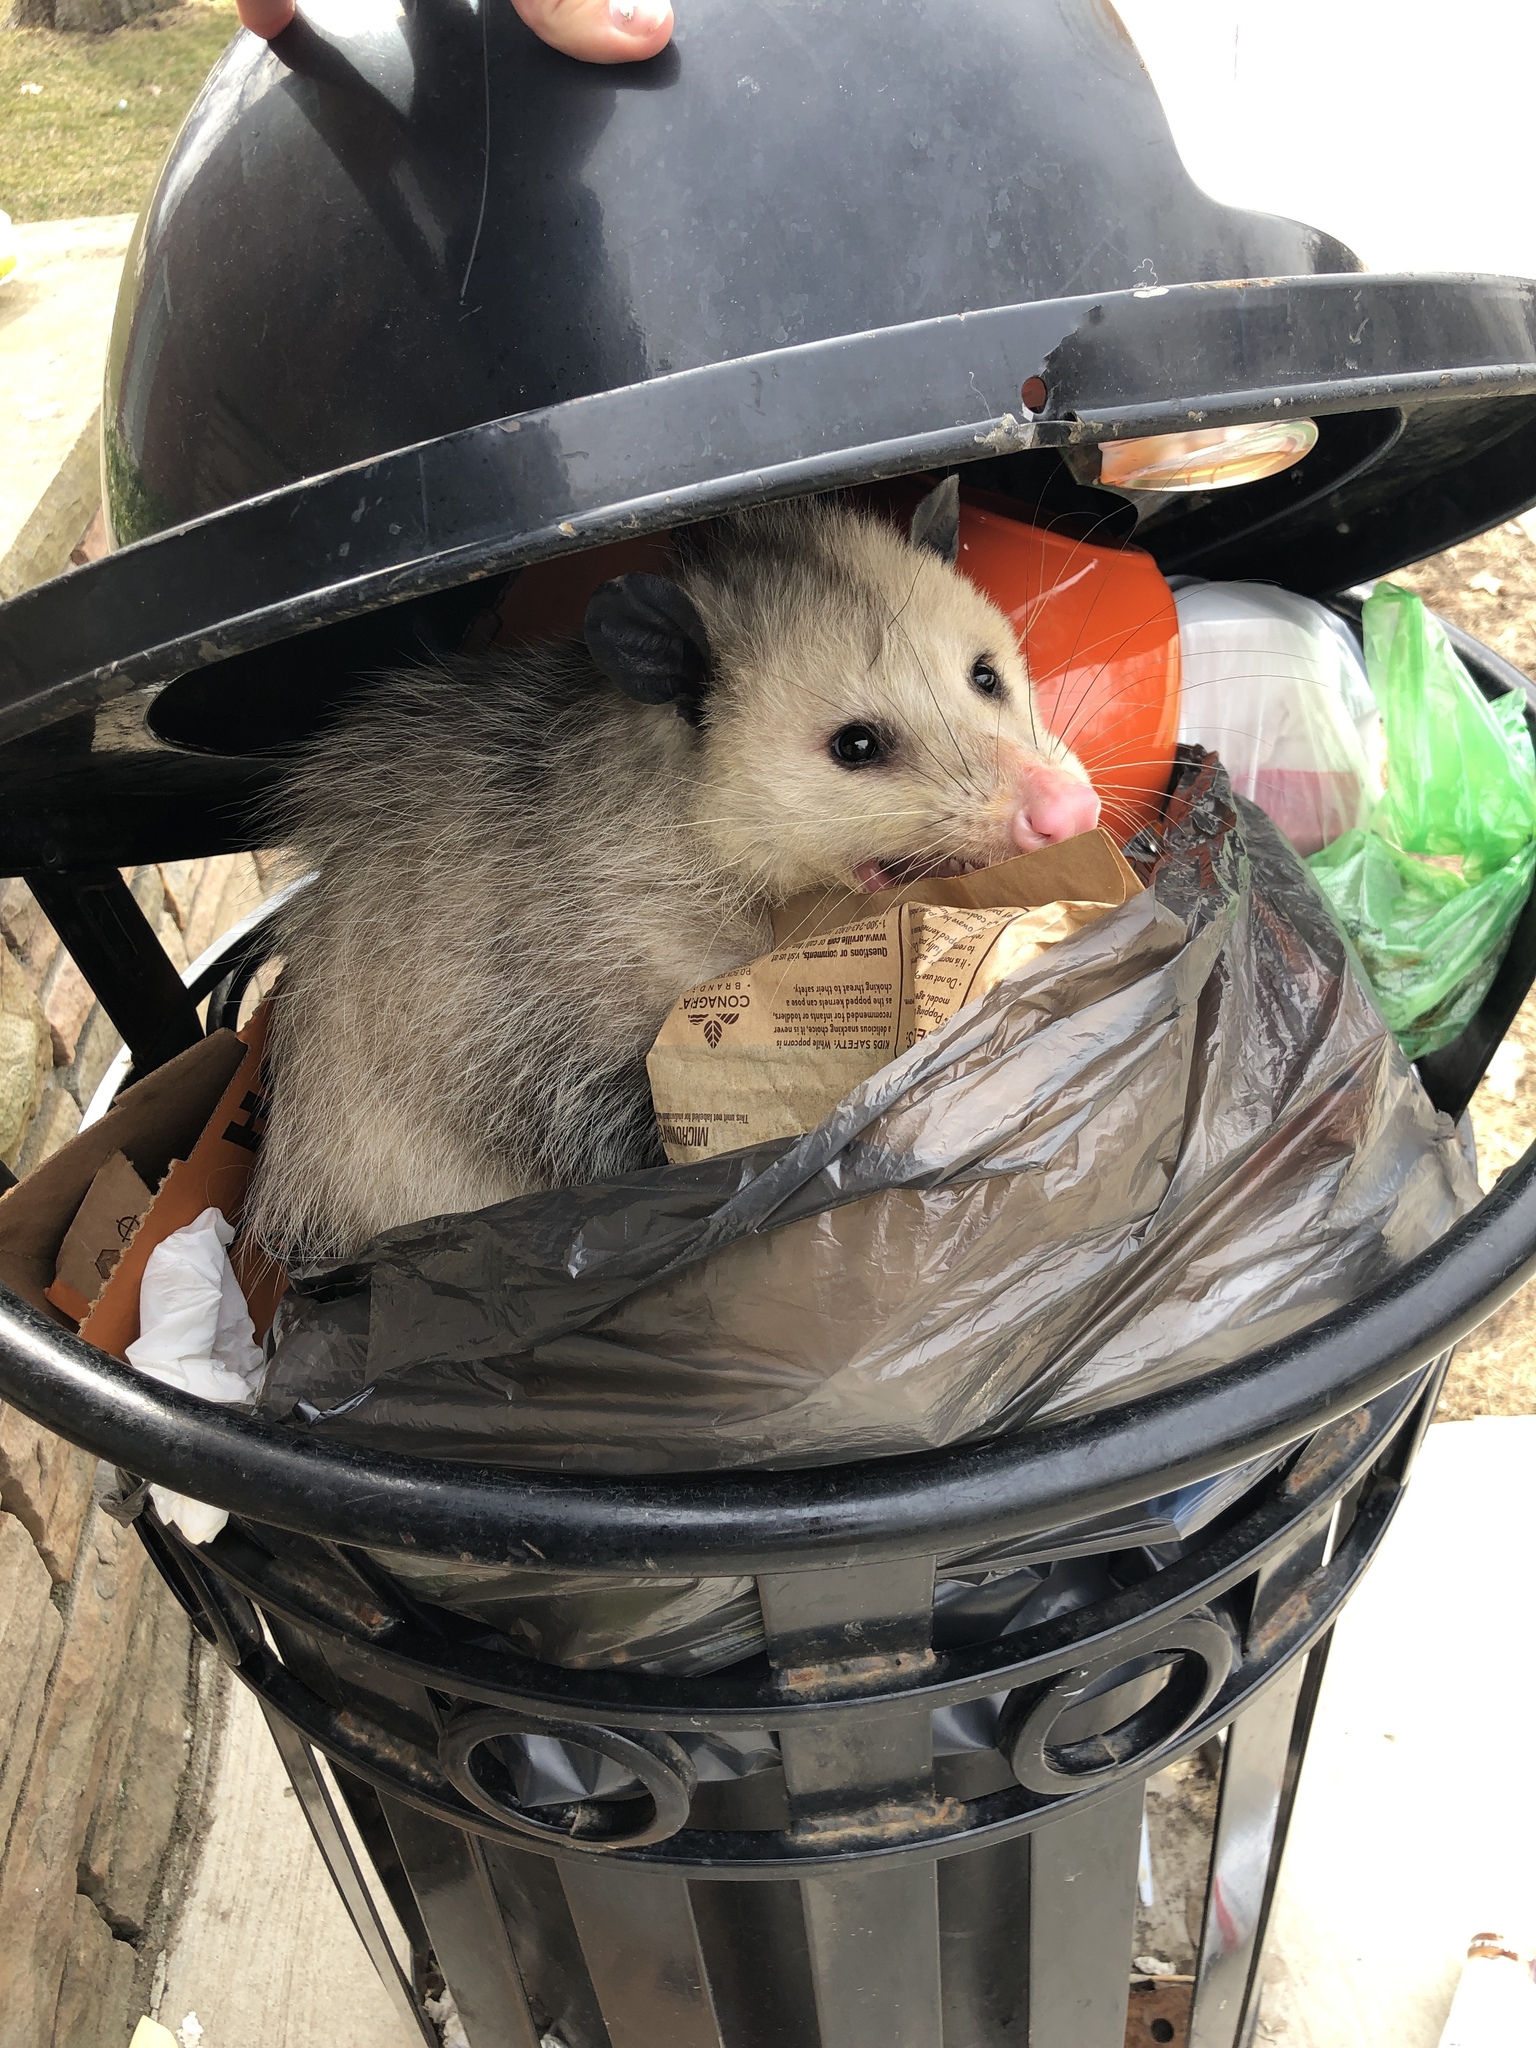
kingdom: Animalia
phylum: Chordata
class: Mammalia
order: Didelphimorphia
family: Didelphidae
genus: Didelphis
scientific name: Didelphis virginiana
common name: Virginia opossum
